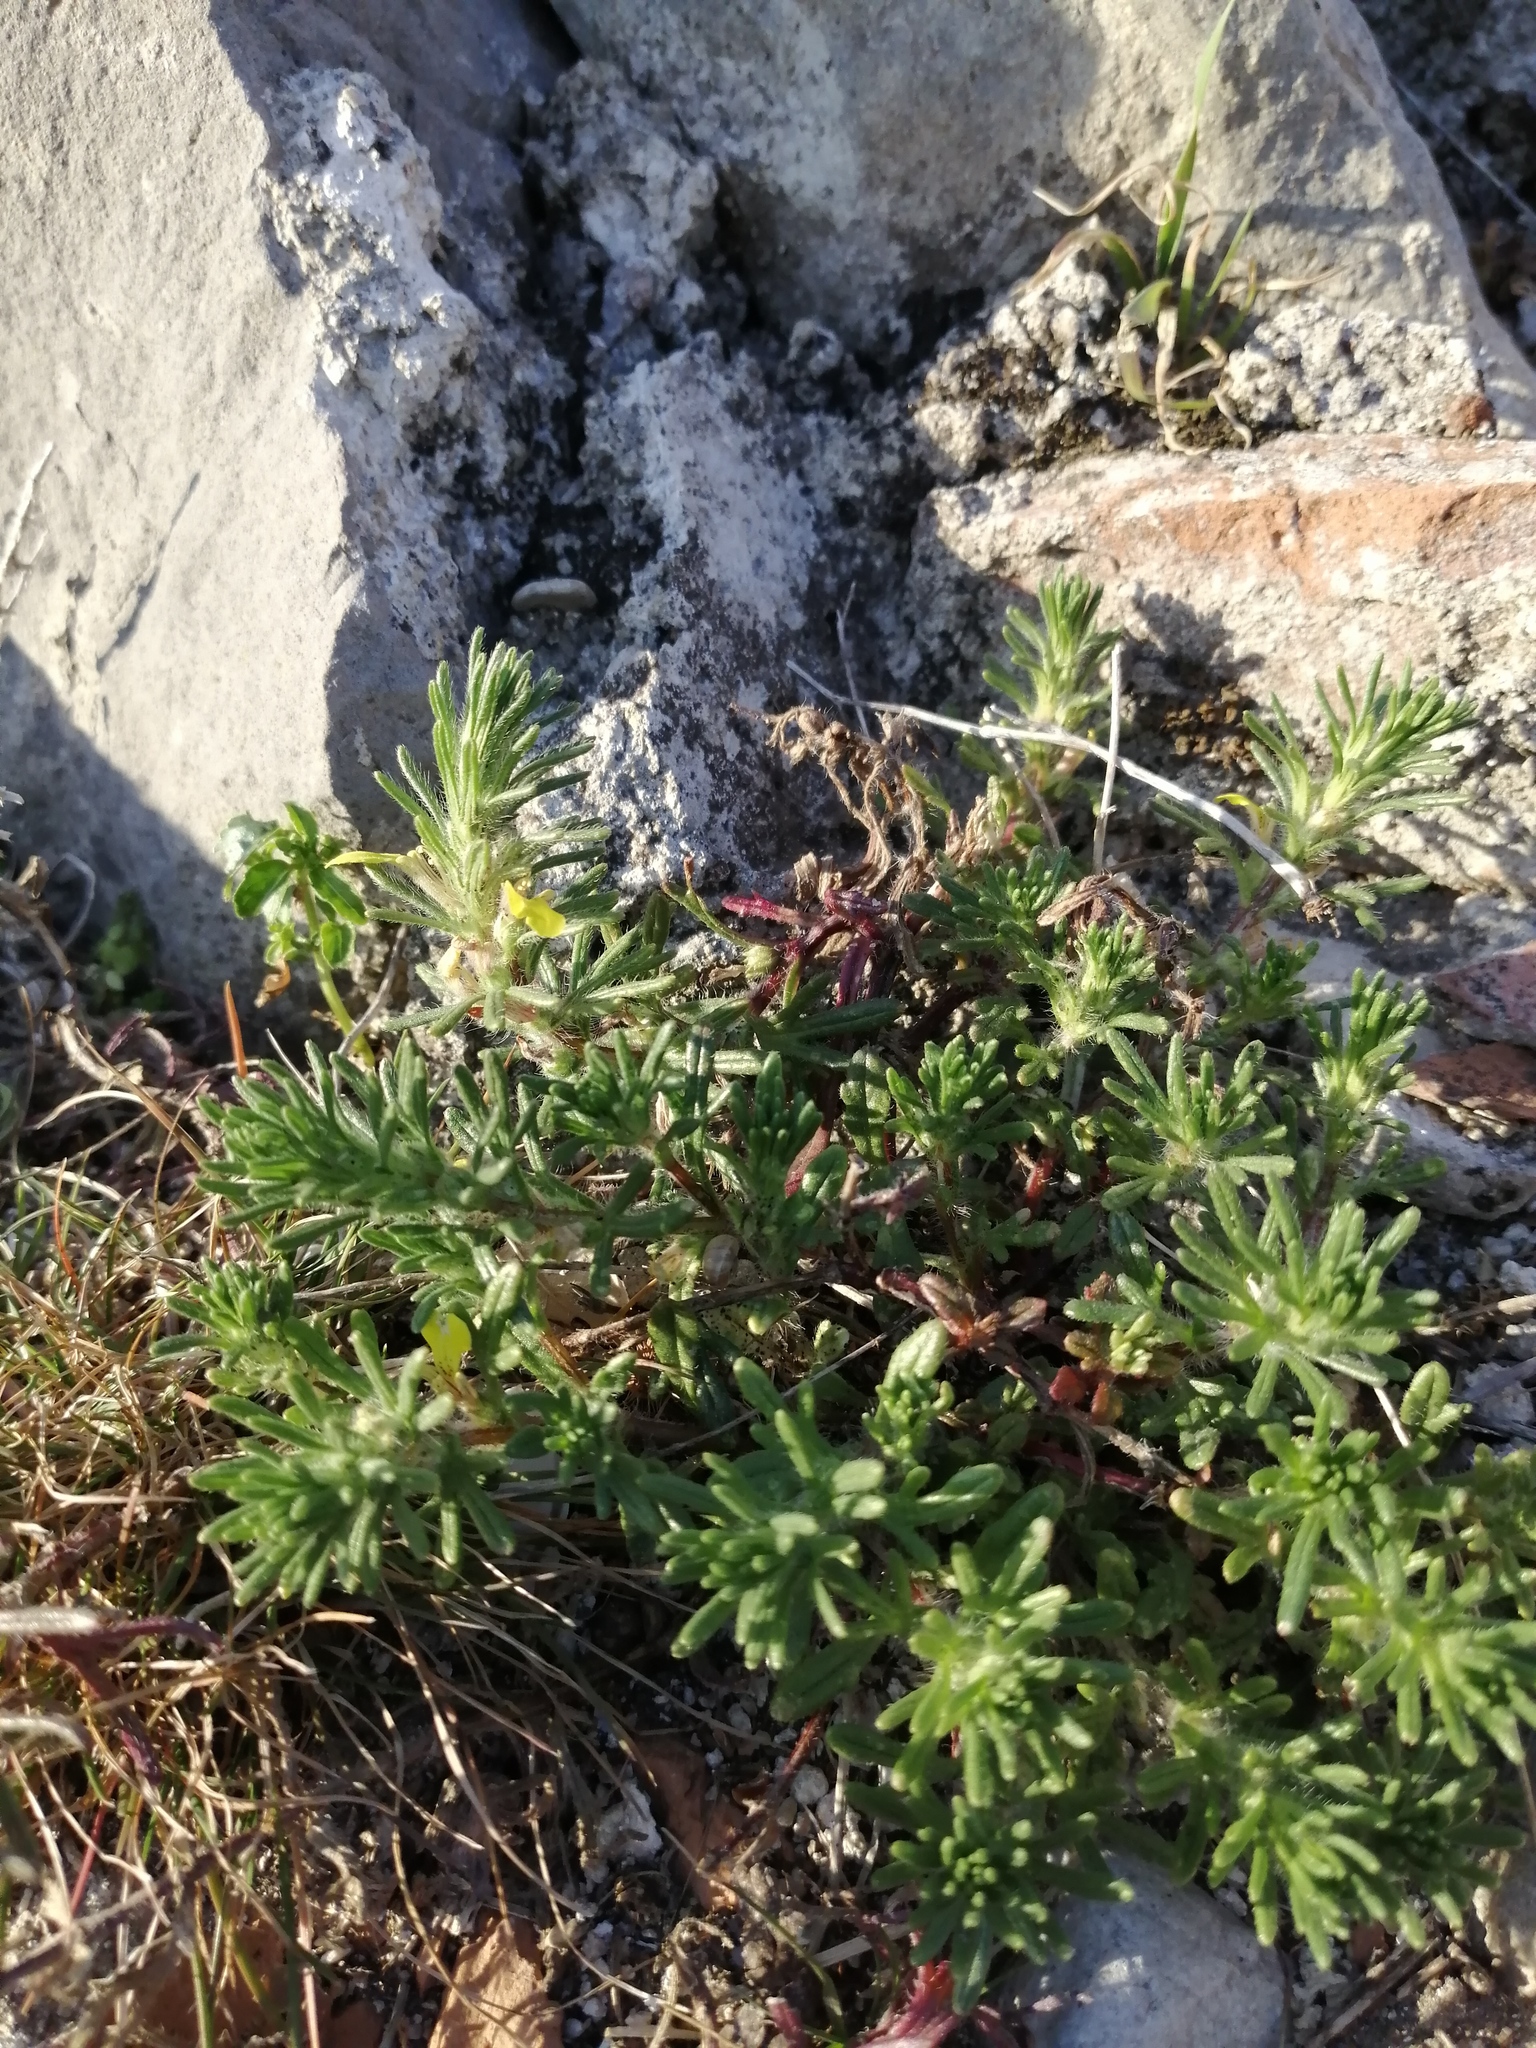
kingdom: Plantae
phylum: Tracheophyta
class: Magnoliopsida
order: Lamiales
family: Lamiaceae
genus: Ajuga
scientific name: Ajuga chamaepitys
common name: Ground-pine
